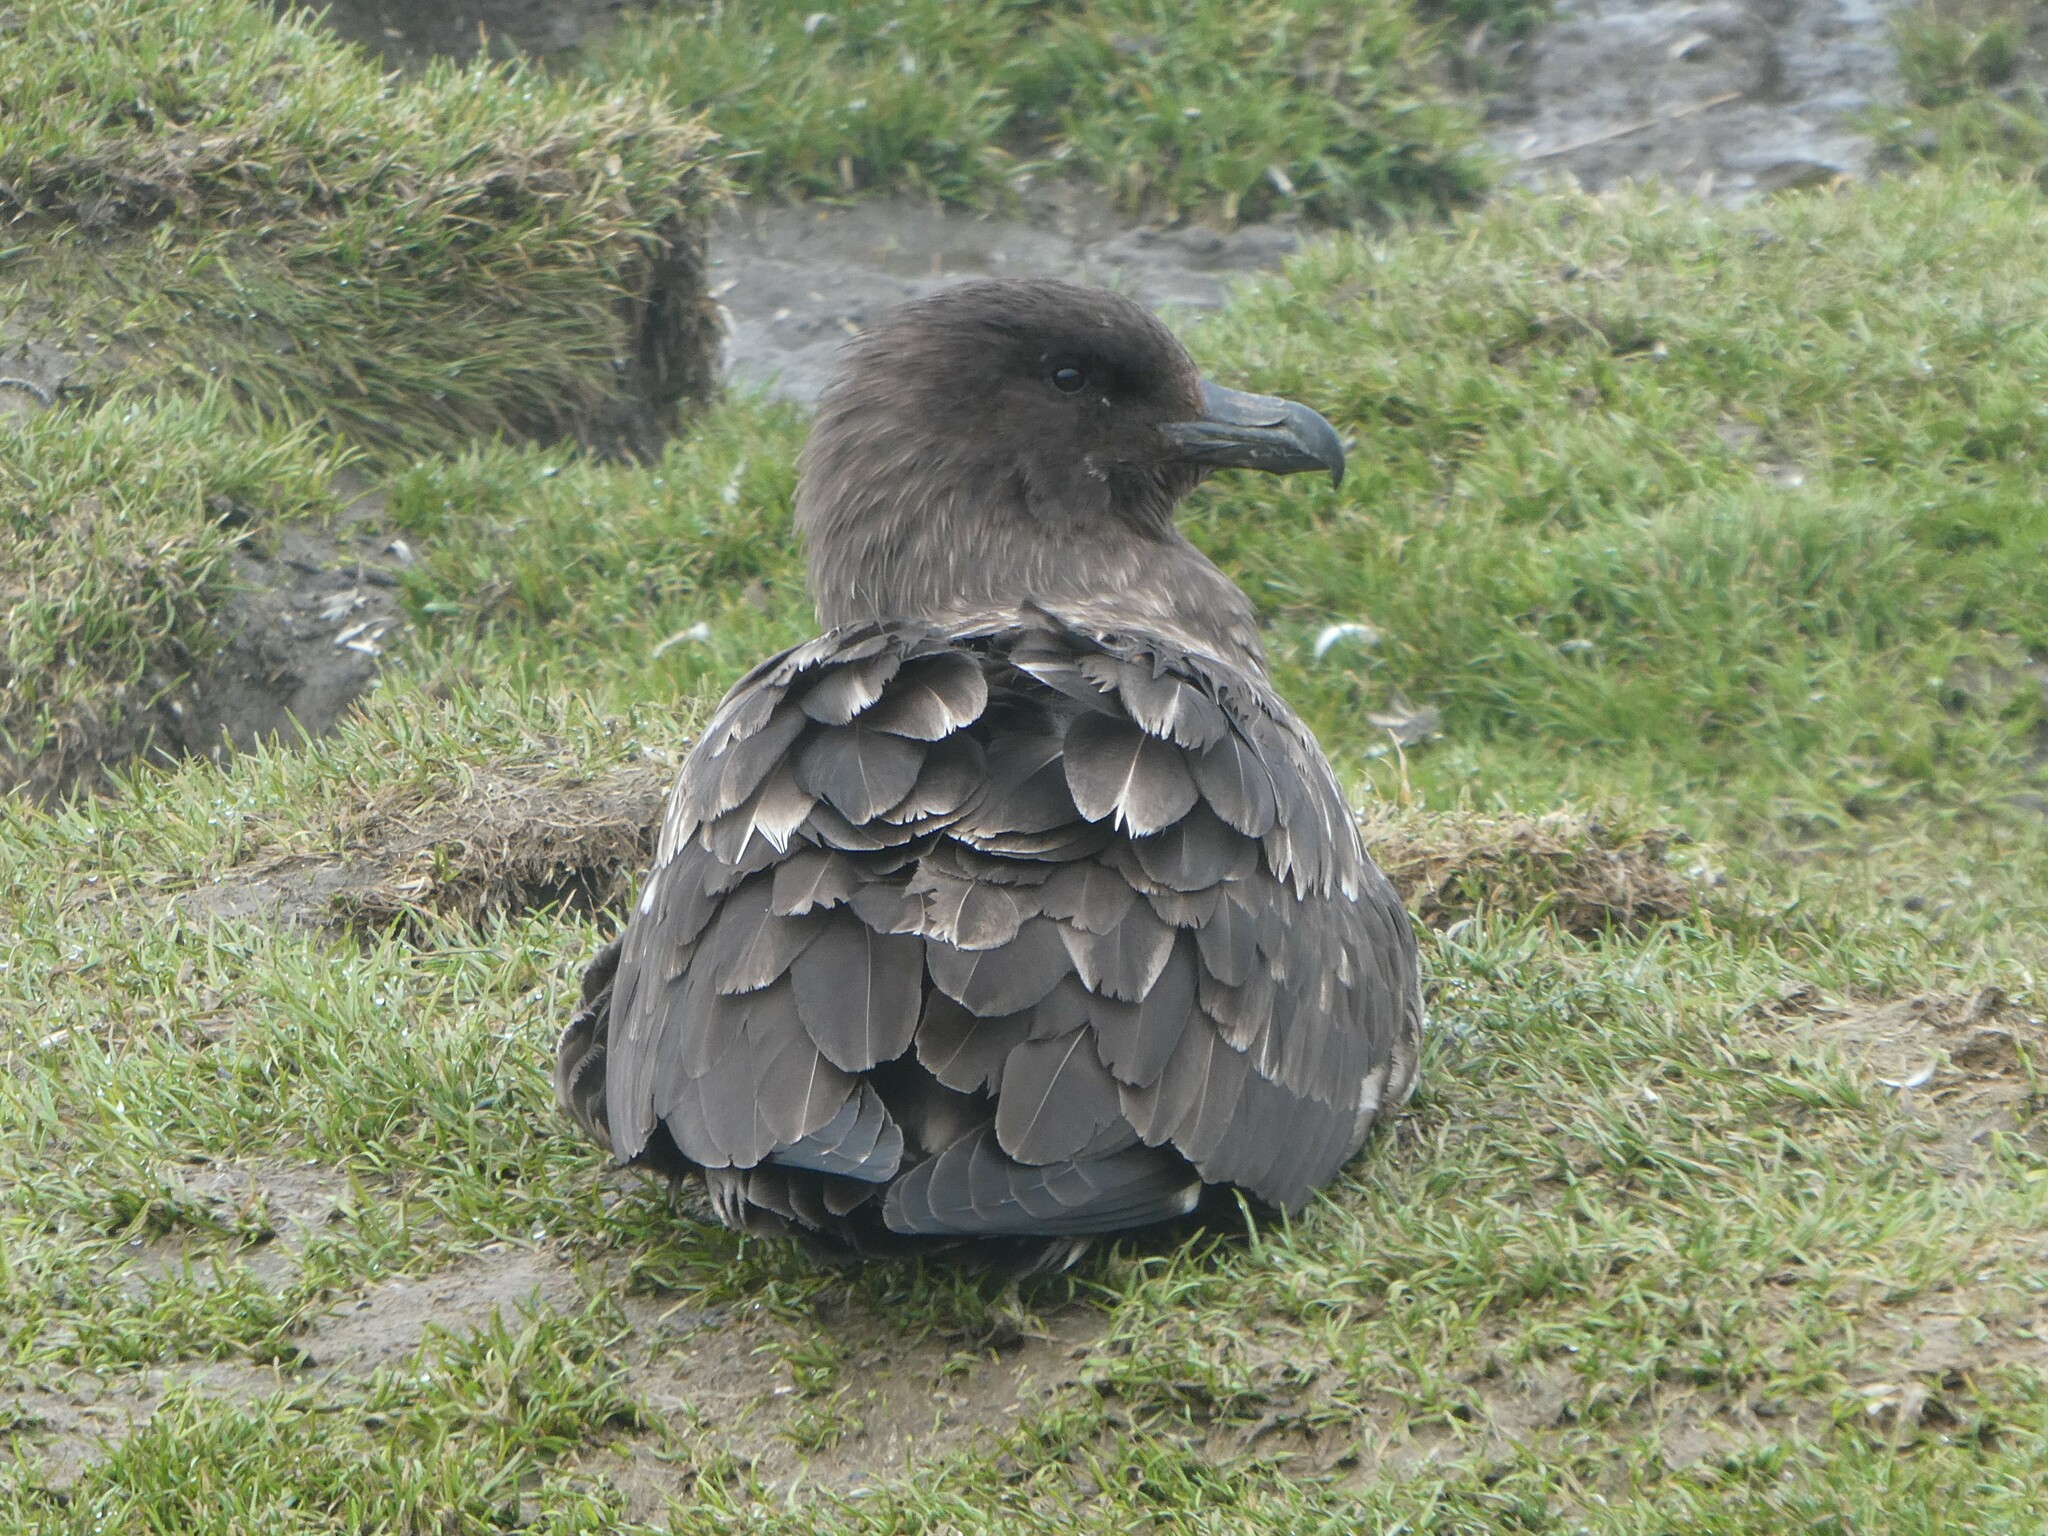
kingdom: Animalia
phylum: Chordata
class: Aves
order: Charadriiformes
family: Stercorariidae
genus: Stercorarius
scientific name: Stercorarius antarcticus
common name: Brown skua
